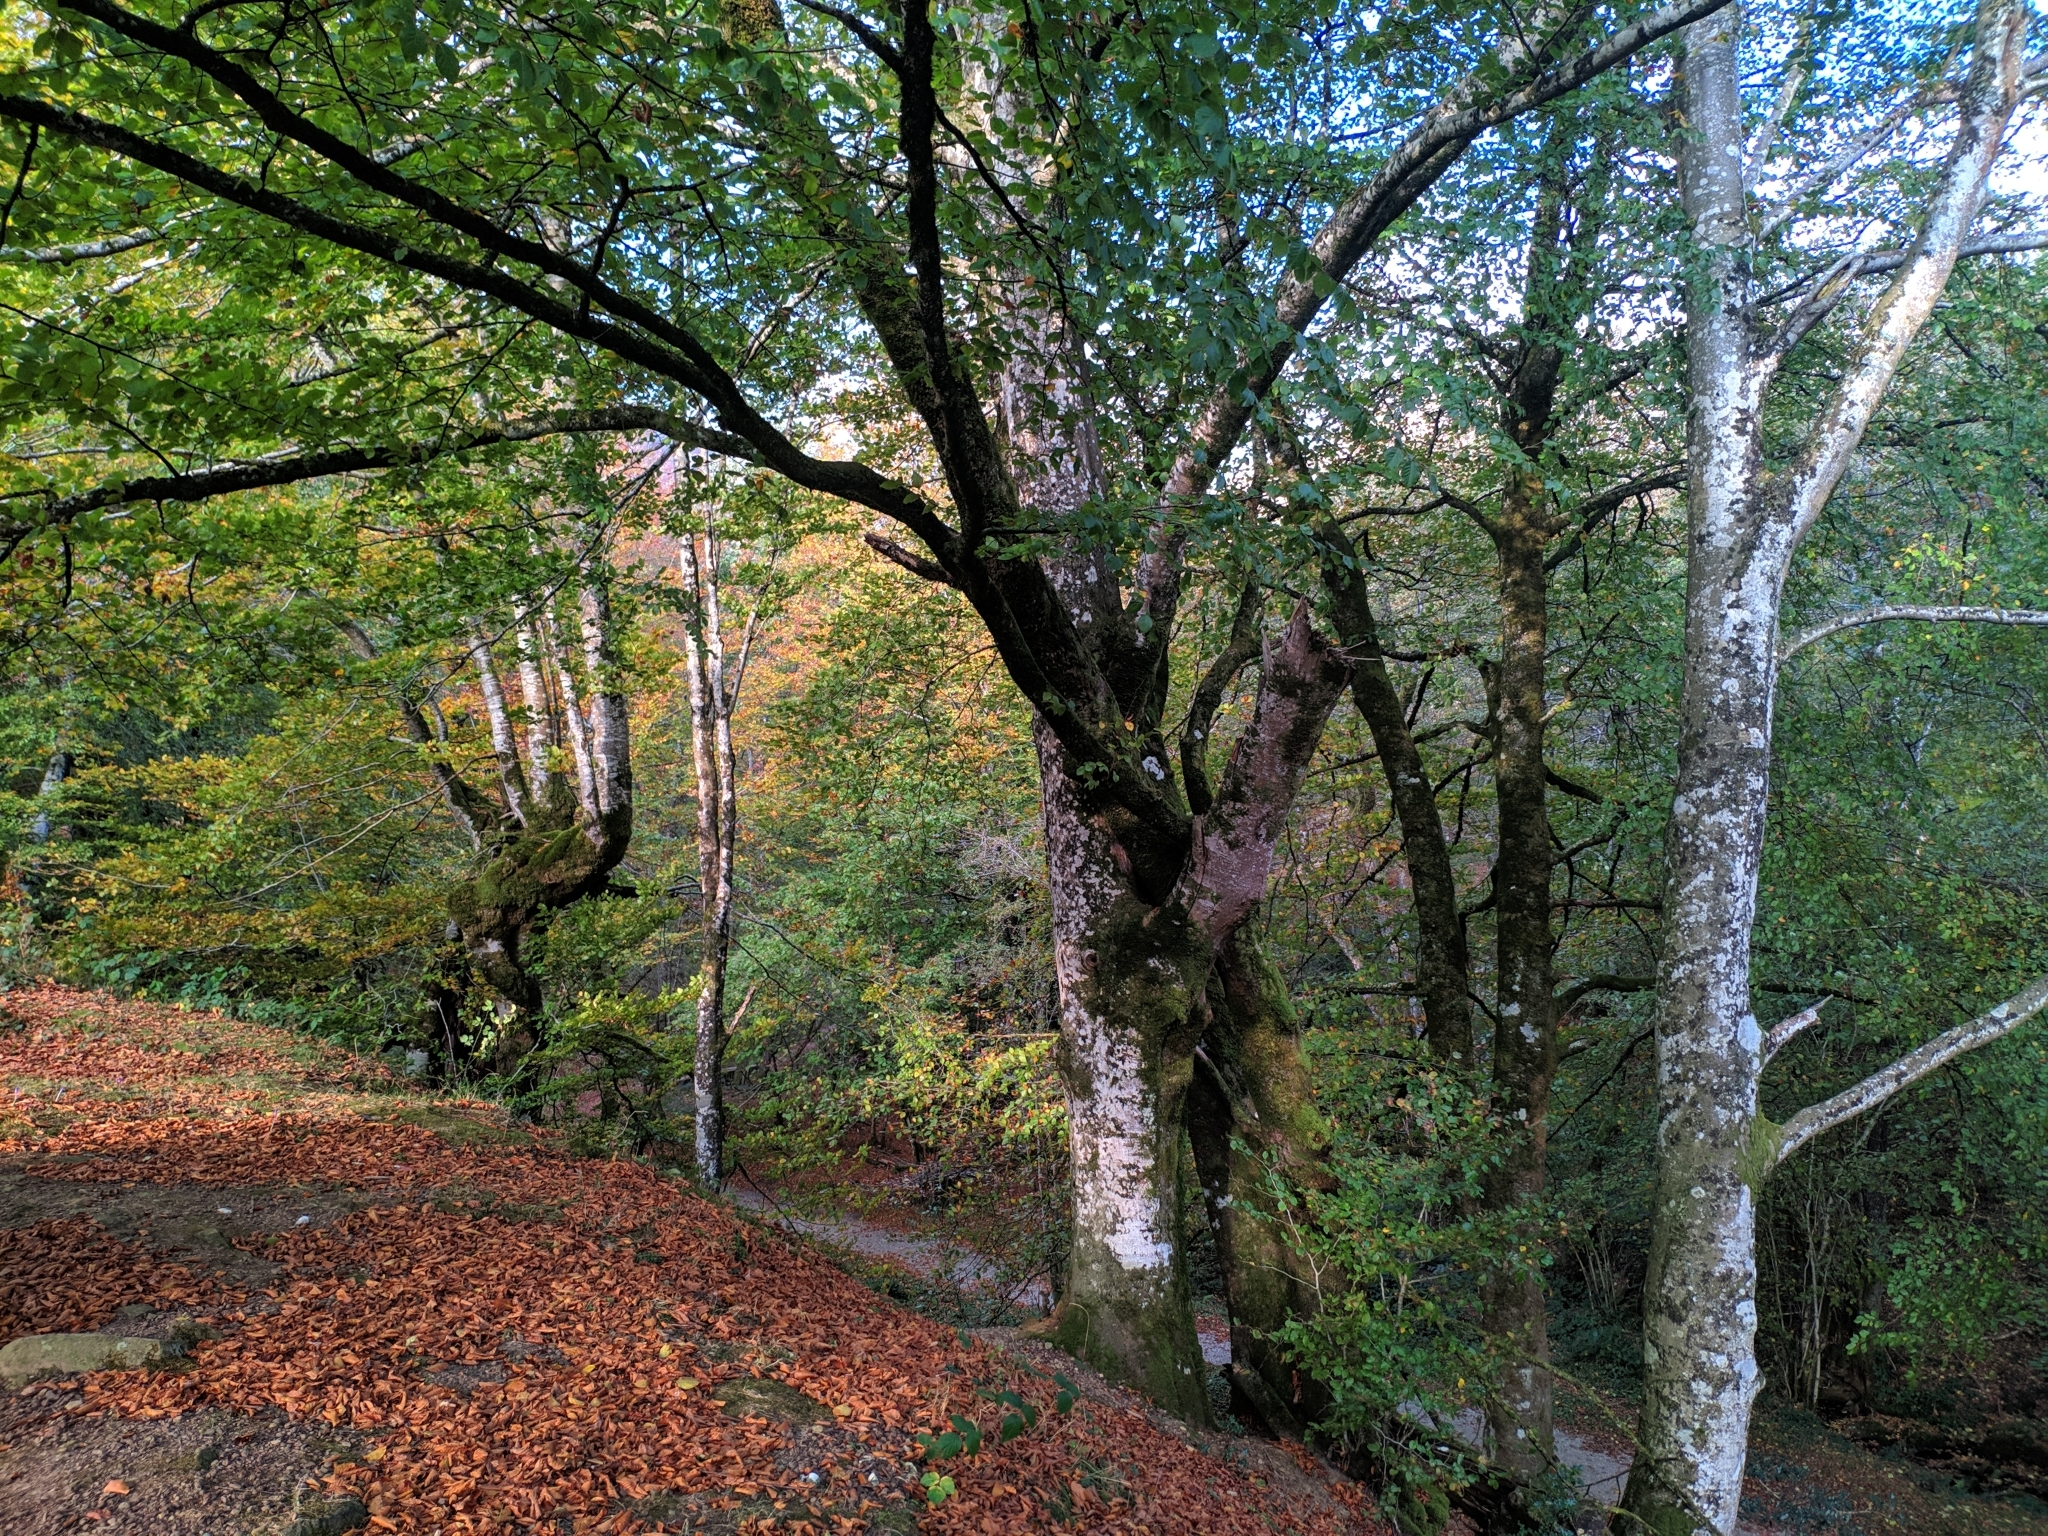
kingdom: Plantae
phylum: Tracheophyta
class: Magnoliopsida
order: Fagales
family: Fagaceae
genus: Fagus
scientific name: Fagus sylvatica
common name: Beech
